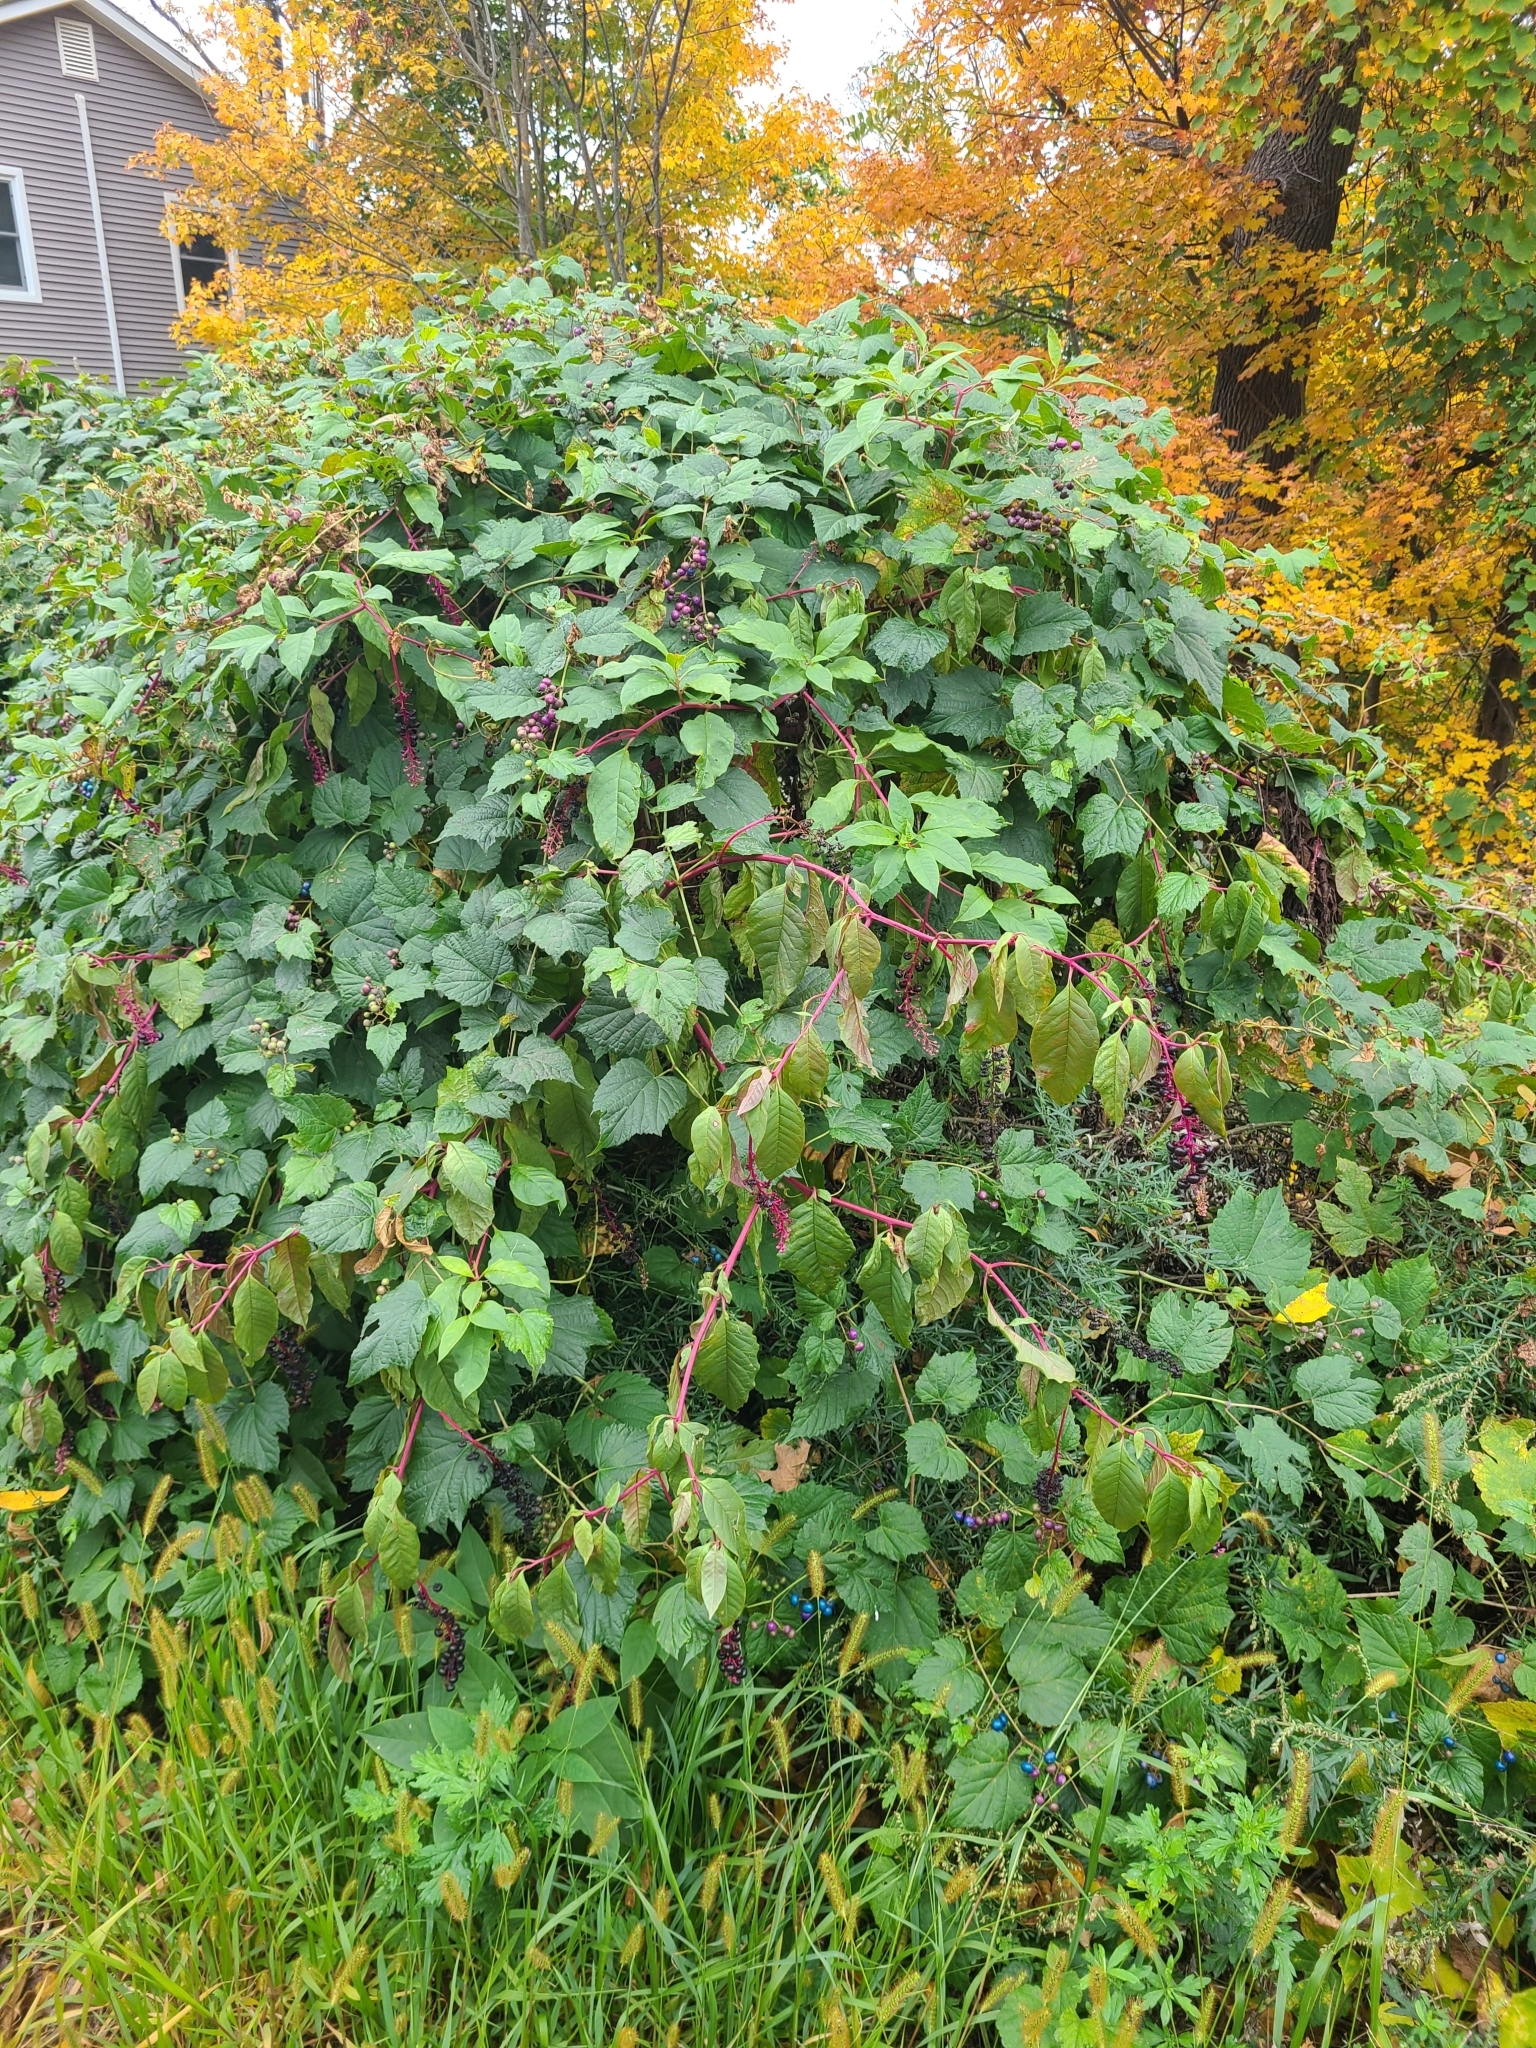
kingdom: Plantae
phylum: Tracheophyta
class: Magnoliopsida
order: Caryophyllales
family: Phytolaccaceae
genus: Phytolacca
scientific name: Phytolacca americana
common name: American pokeweed
